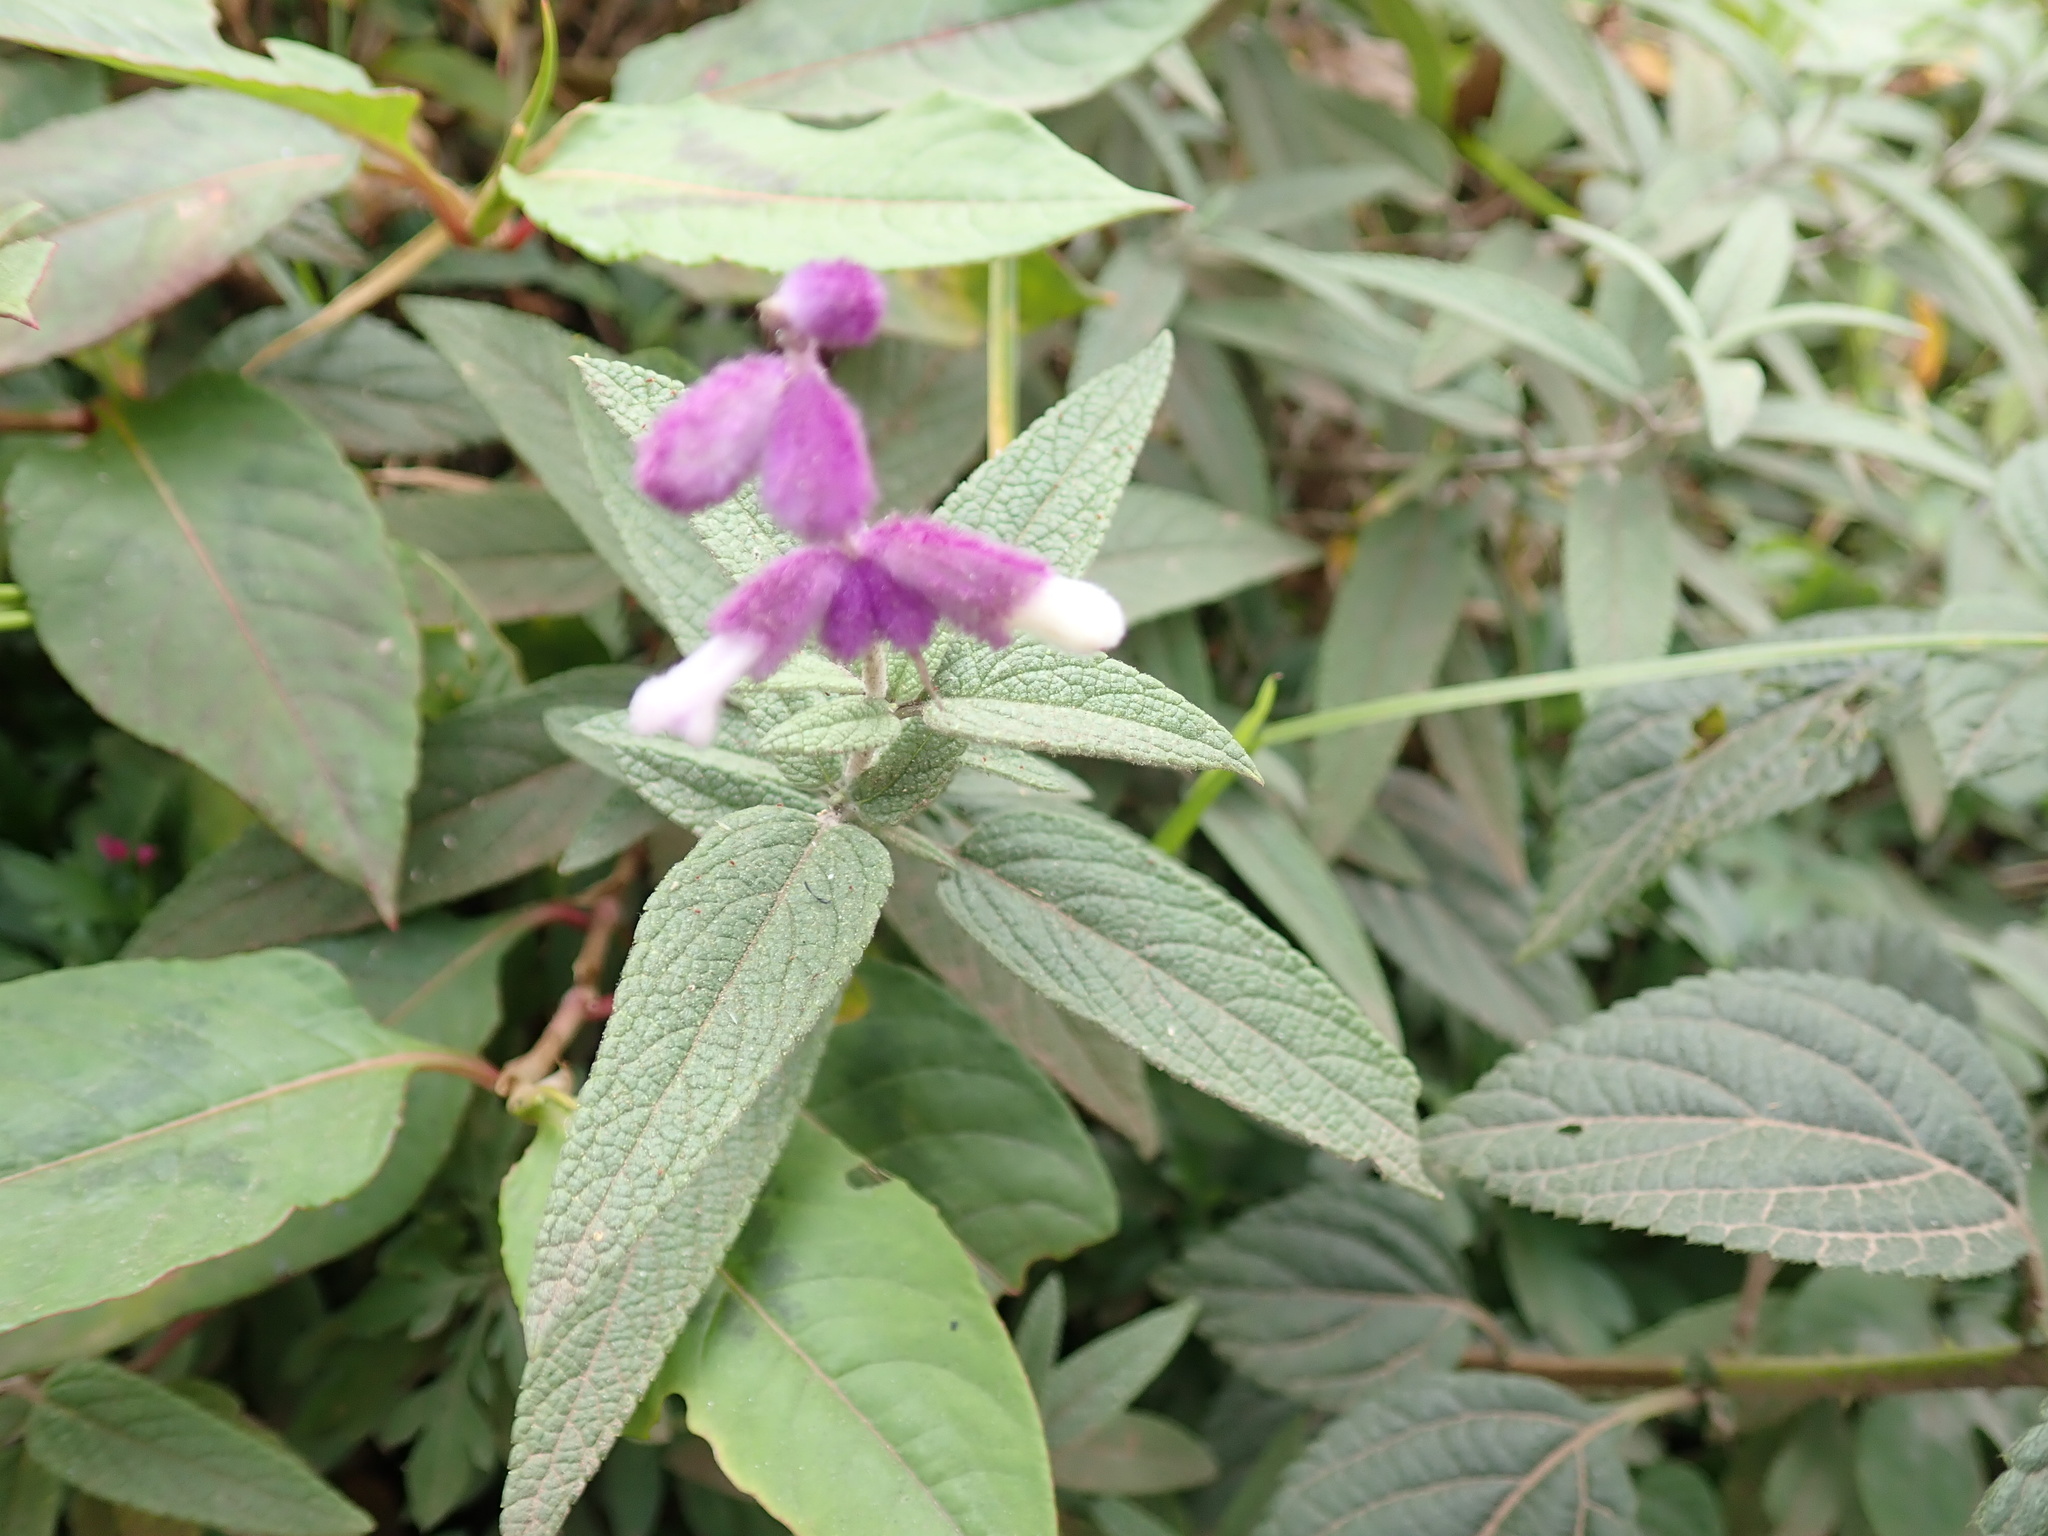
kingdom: Plantae
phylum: Tracheophyta
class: Magnoliopsida
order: Lamiales
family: Lamiaceae
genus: Salvia
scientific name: Salvia leucantha
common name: Mexican bush sage
